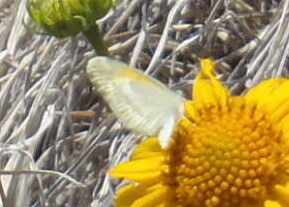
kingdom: Animalia
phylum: Arthropoda
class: Insecta
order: Lepidoptera
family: Pieridae
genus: Nathalis
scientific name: Nathalis iole
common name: Dainty sulphur
